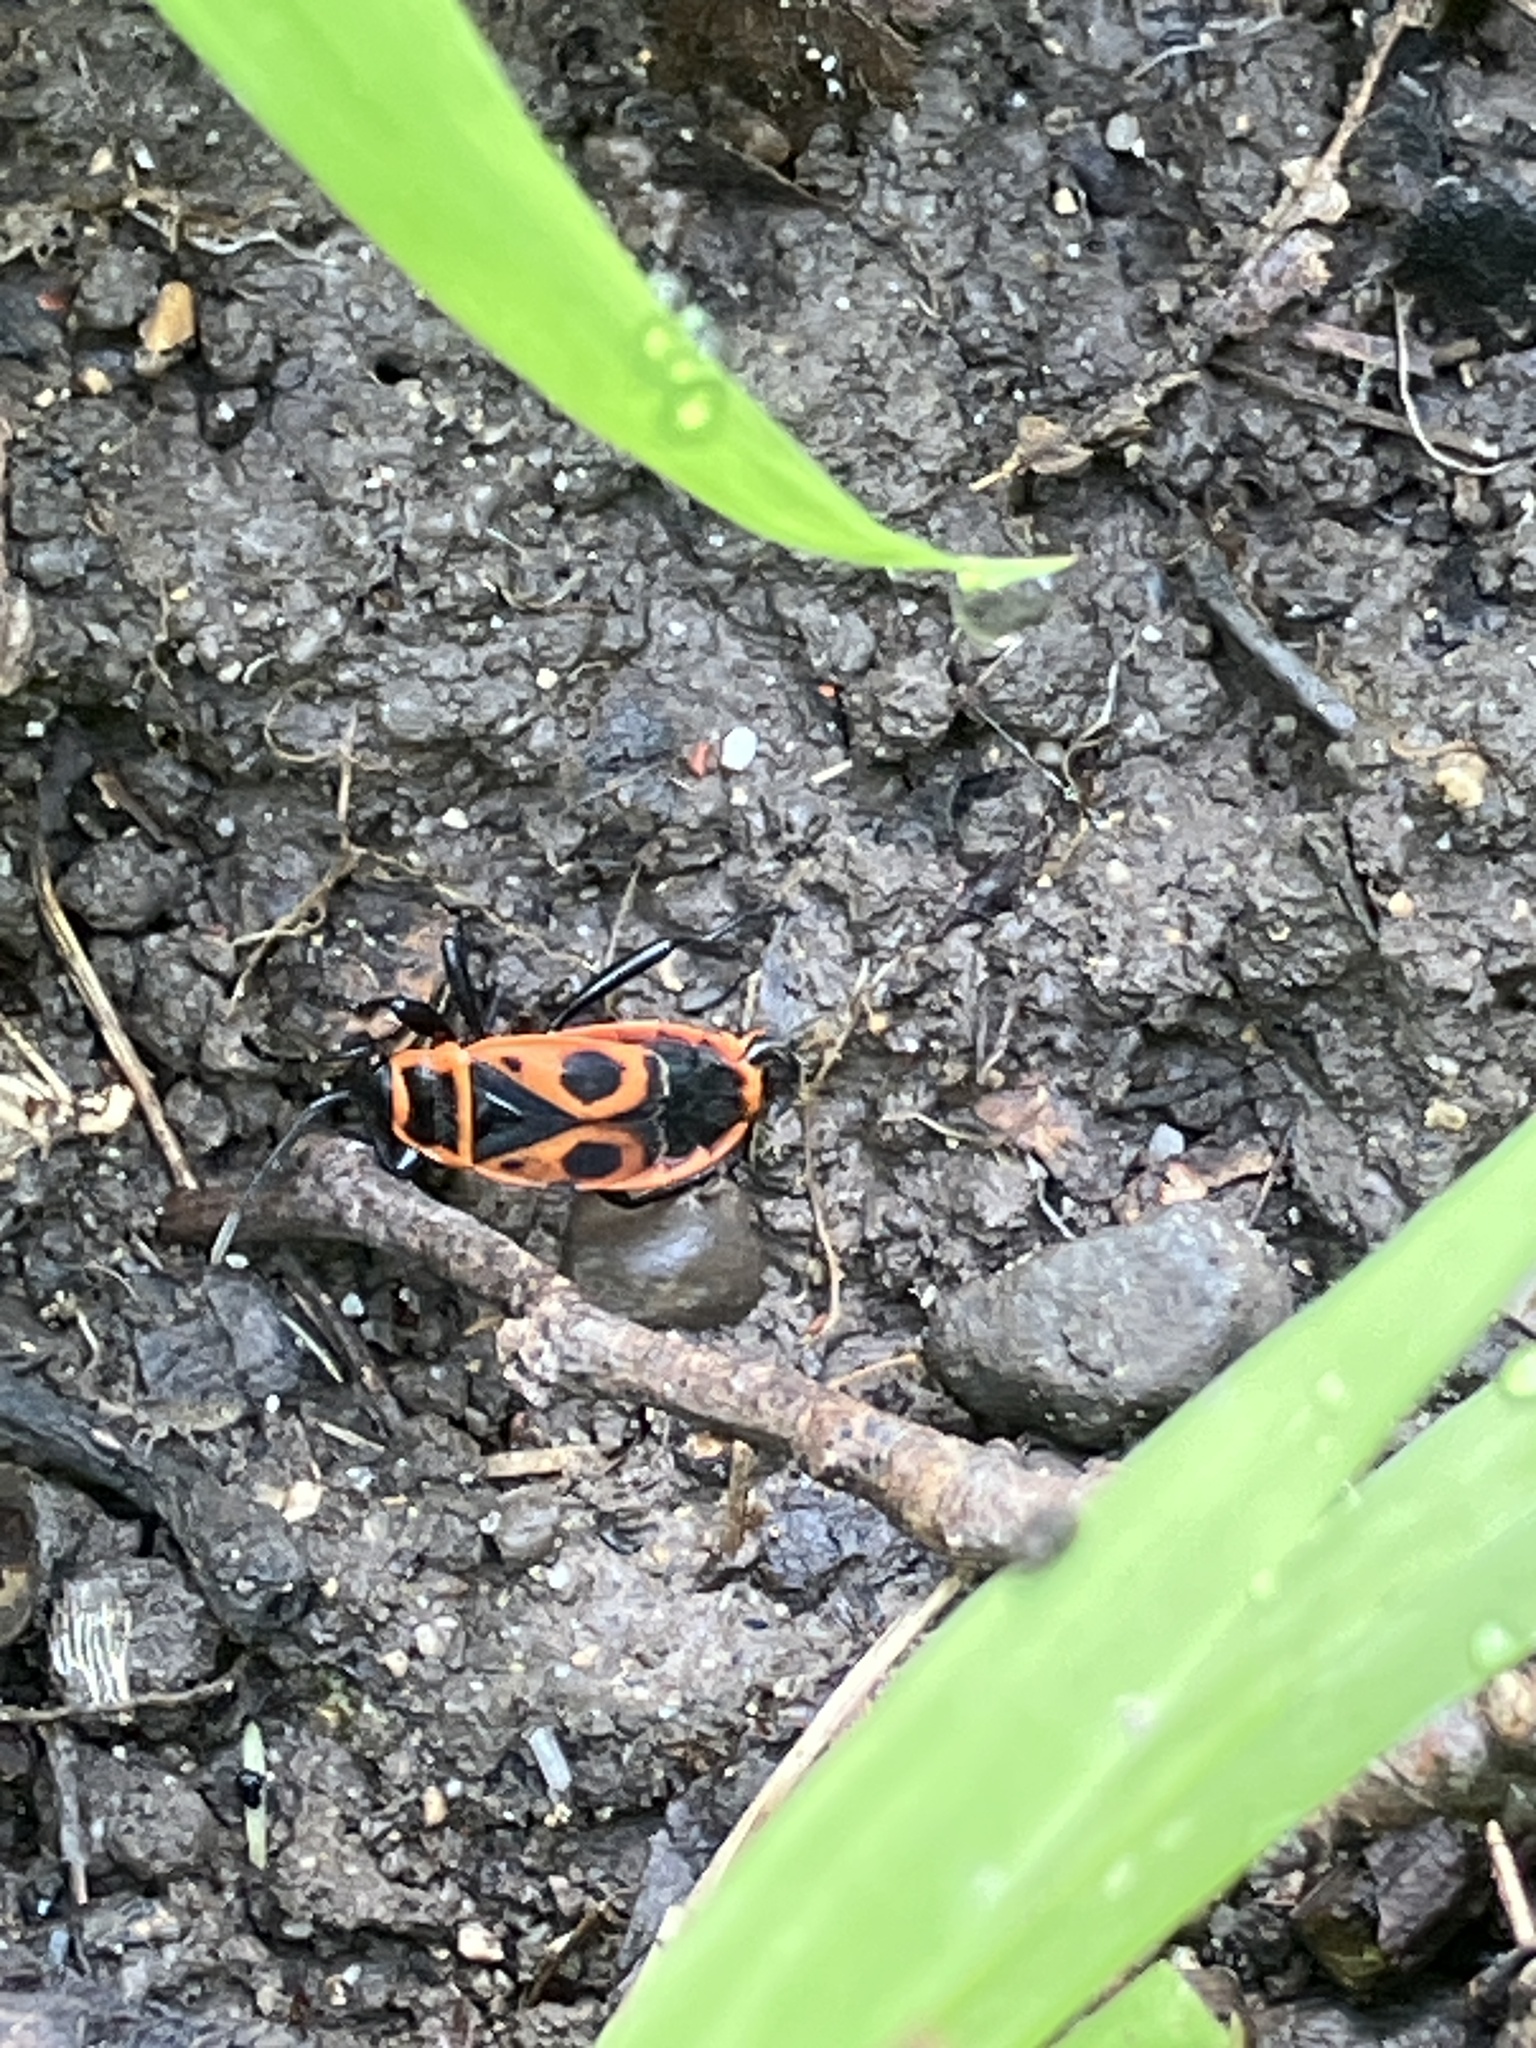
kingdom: Animalia
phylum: Arthropoda
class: Insecta
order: Hemiptera
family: Pyrrhocoridae
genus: Pyrrhocoris
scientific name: Pyrrhocoris apterus
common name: Firebug
